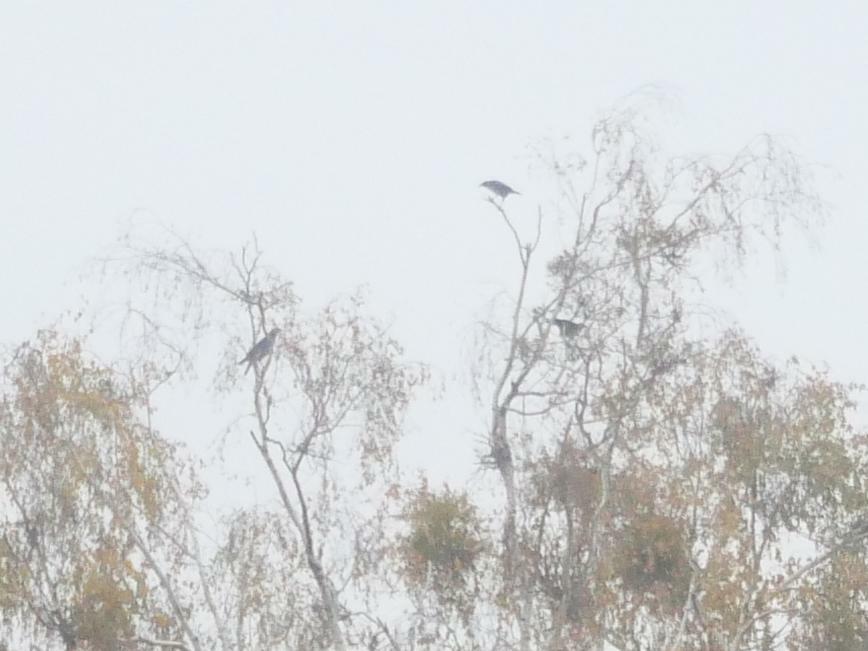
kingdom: Animalia
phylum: Chordata
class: Aves
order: Passeriformes
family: Corvidae
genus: Corvus
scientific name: Corvus cornix
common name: Hooded crow
